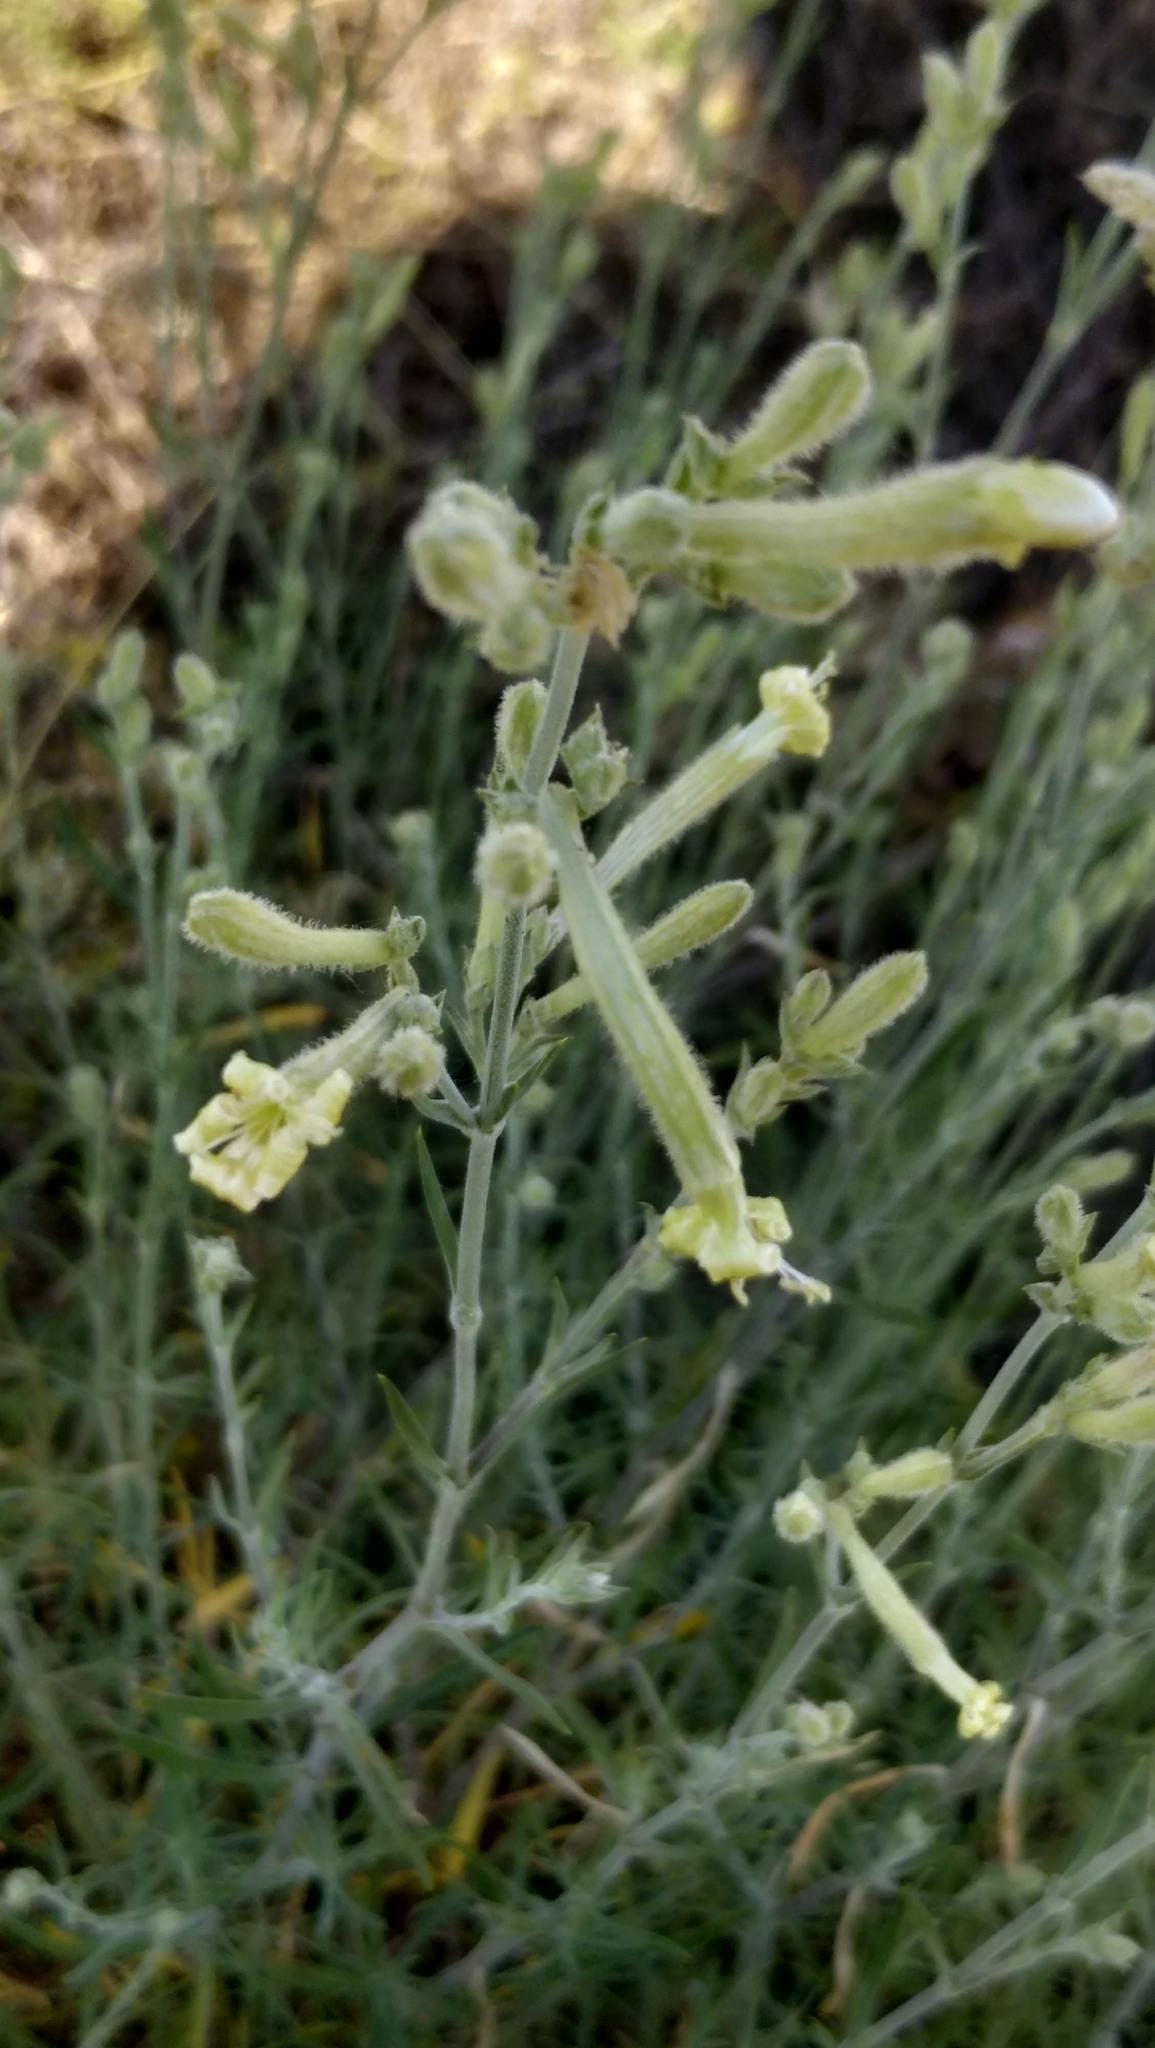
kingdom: Plantae
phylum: Tracheophyta
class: Magnoliopsida
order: Caryophyllales
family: Caryophyllaceae
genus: Silene
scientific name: Silene supina
